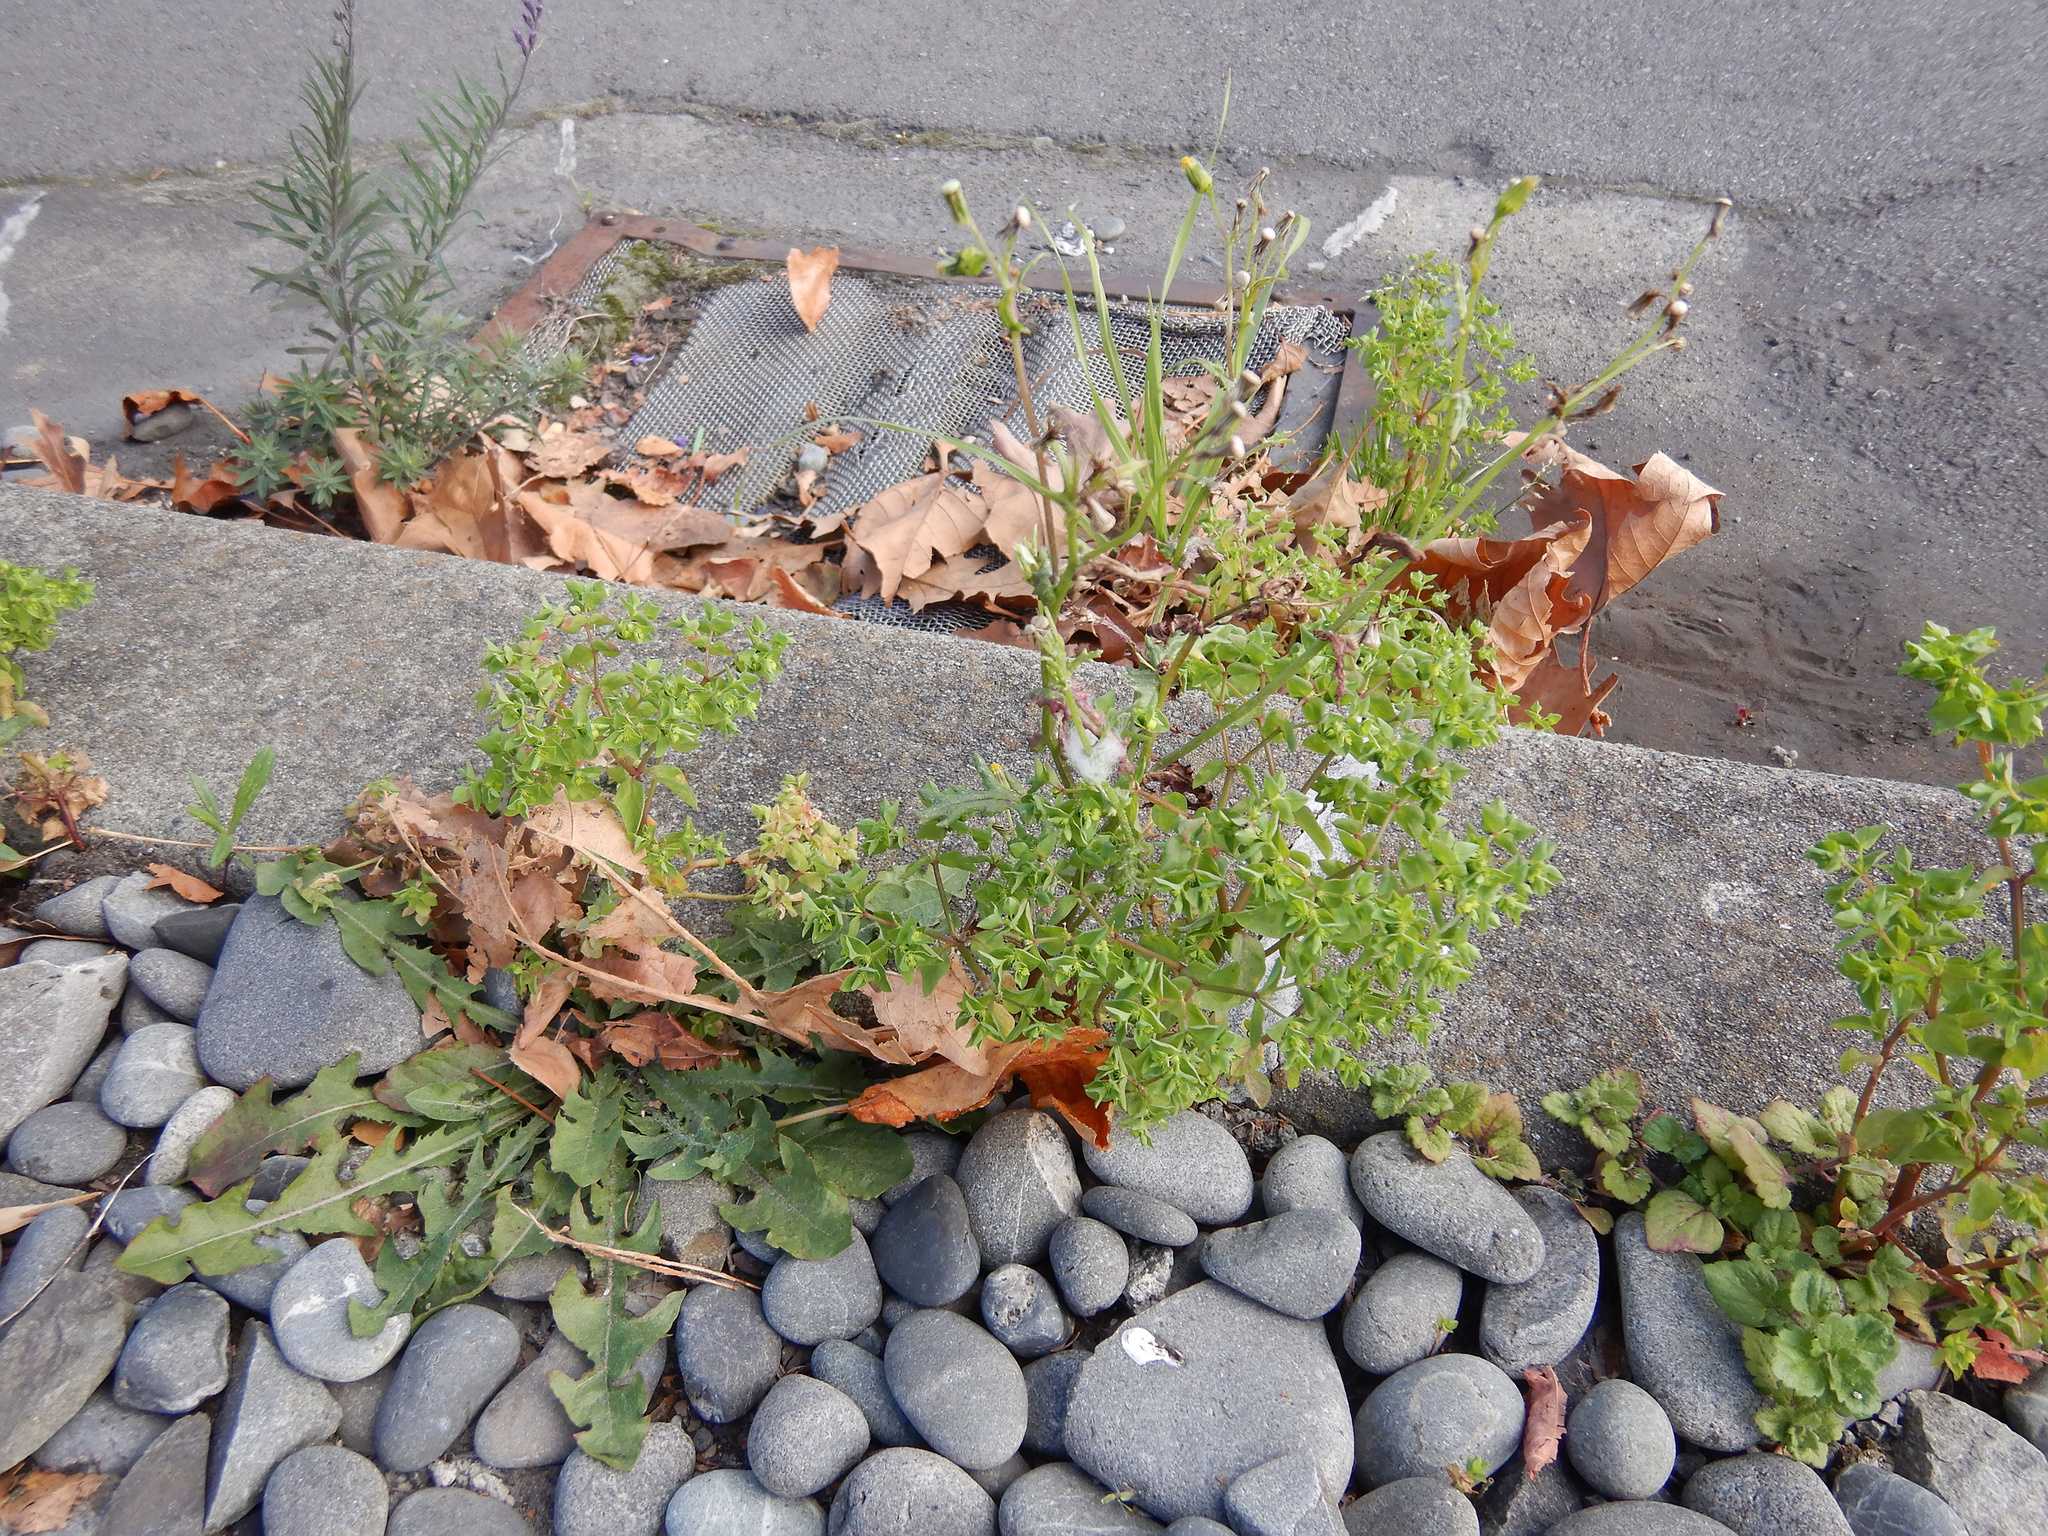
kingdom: Plantae
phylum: Tracheophyta
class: Magnoliopsida
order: Asterales
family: Asteraceae
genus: Senecio
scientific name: Senecio vulgaris
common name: Old-man-in-the-spring
